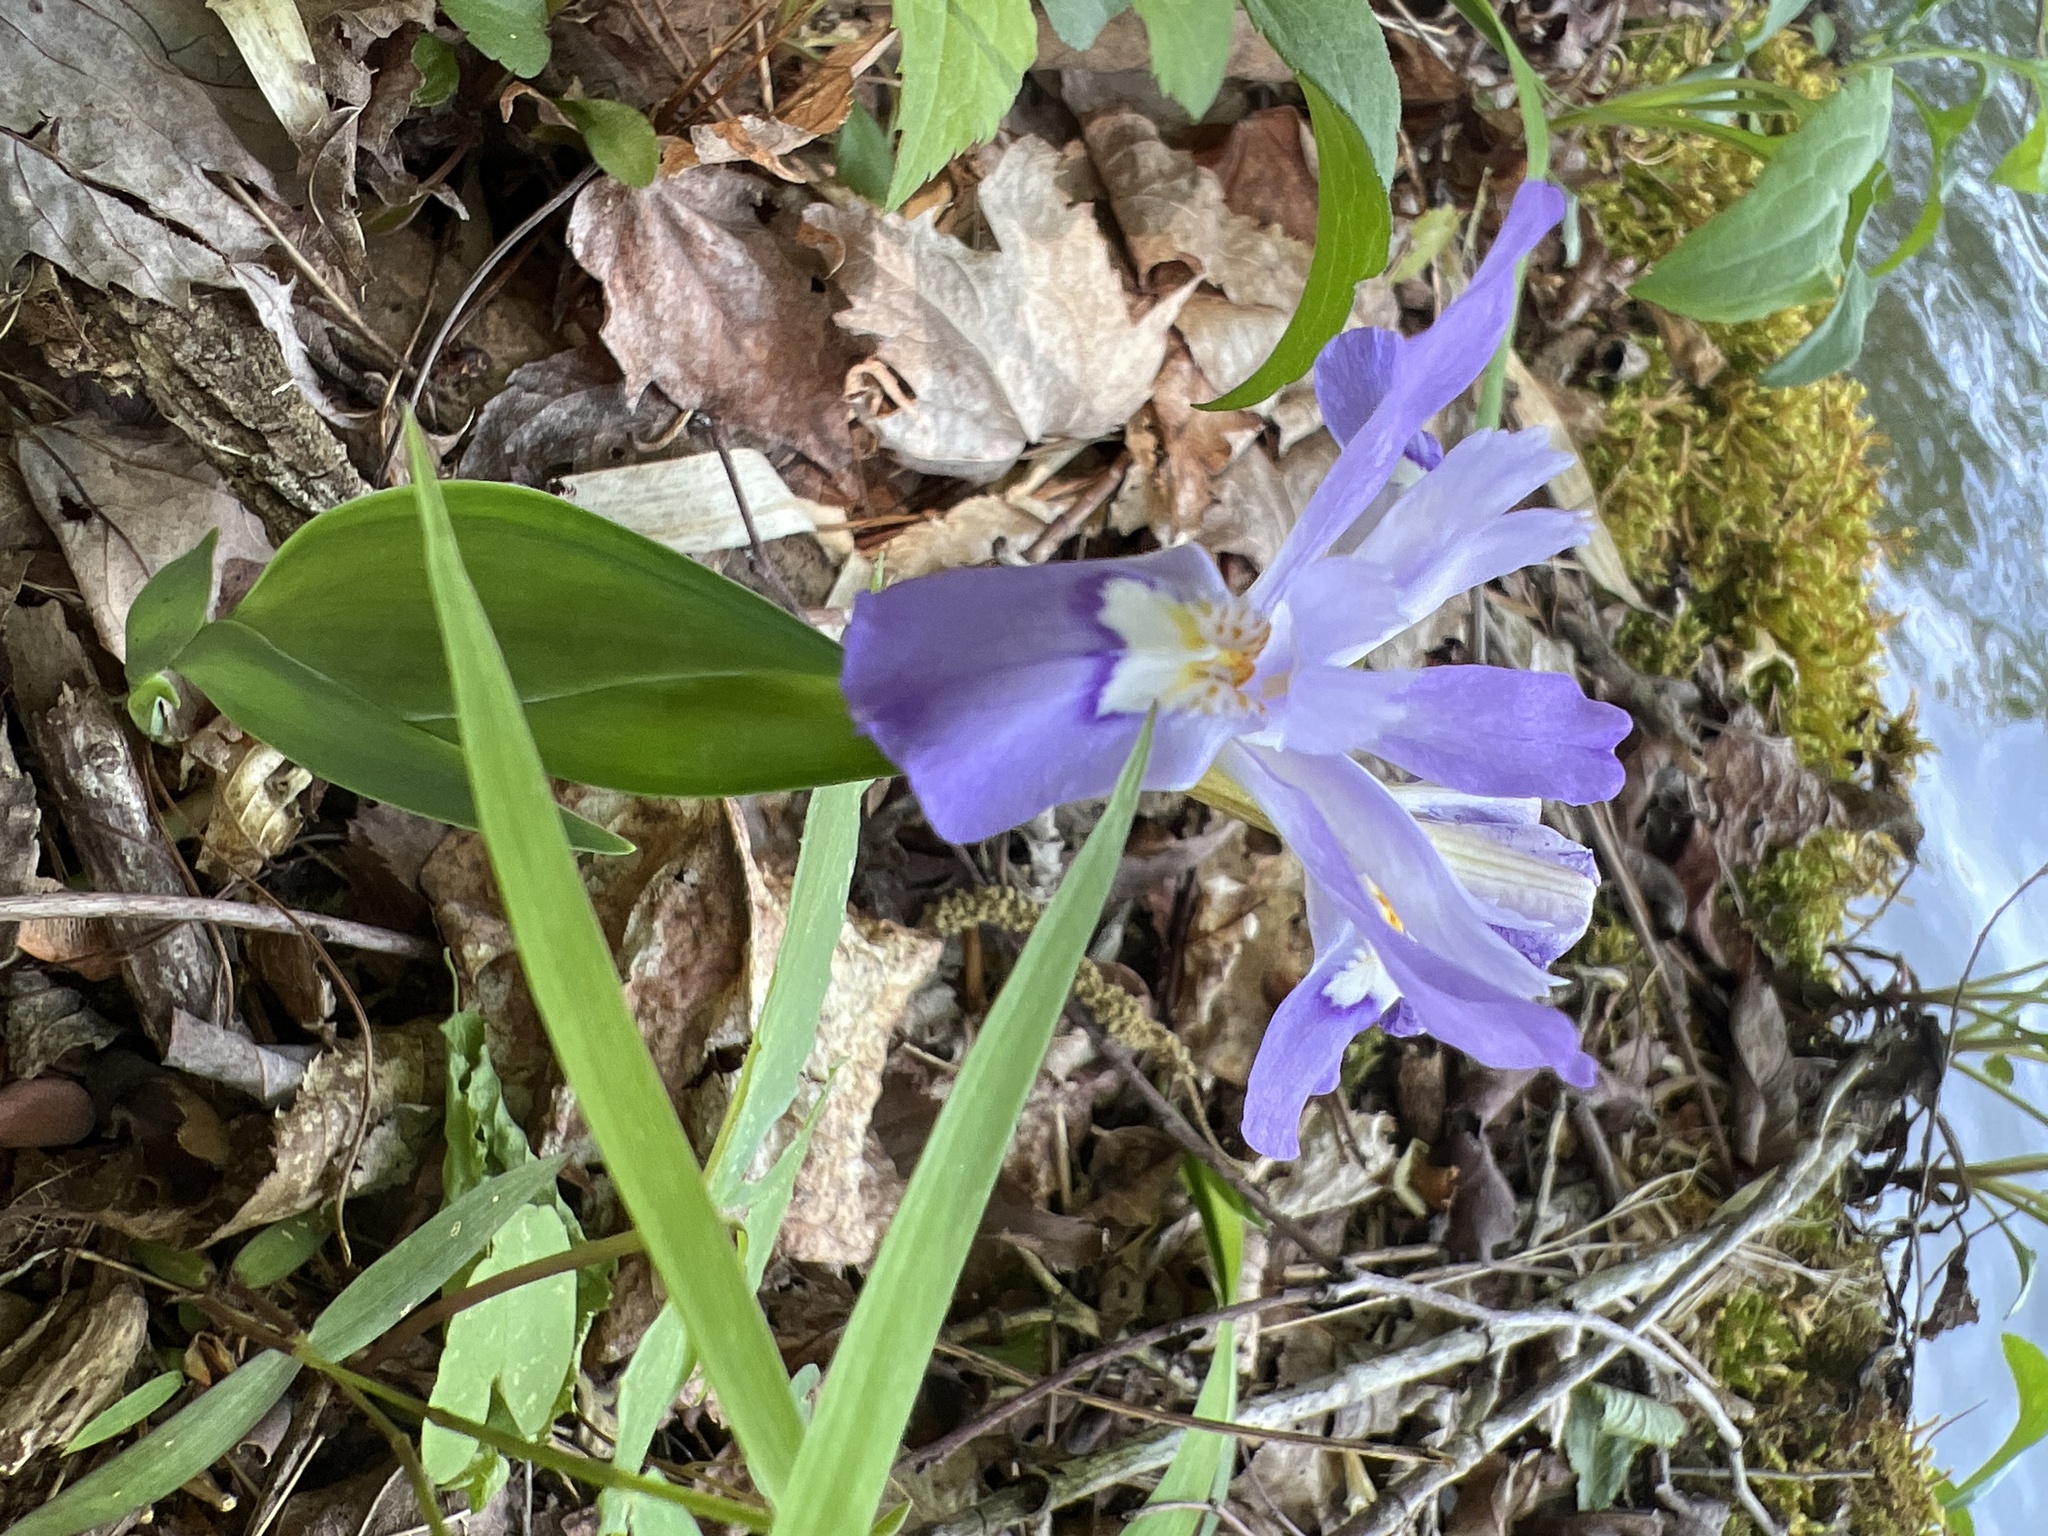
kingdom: Plantae
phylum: Tracheophyta
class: Liliopsida
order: Asparagales
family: Iridaceae
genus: Iris
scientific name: Iris cristata
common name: Crested iris
